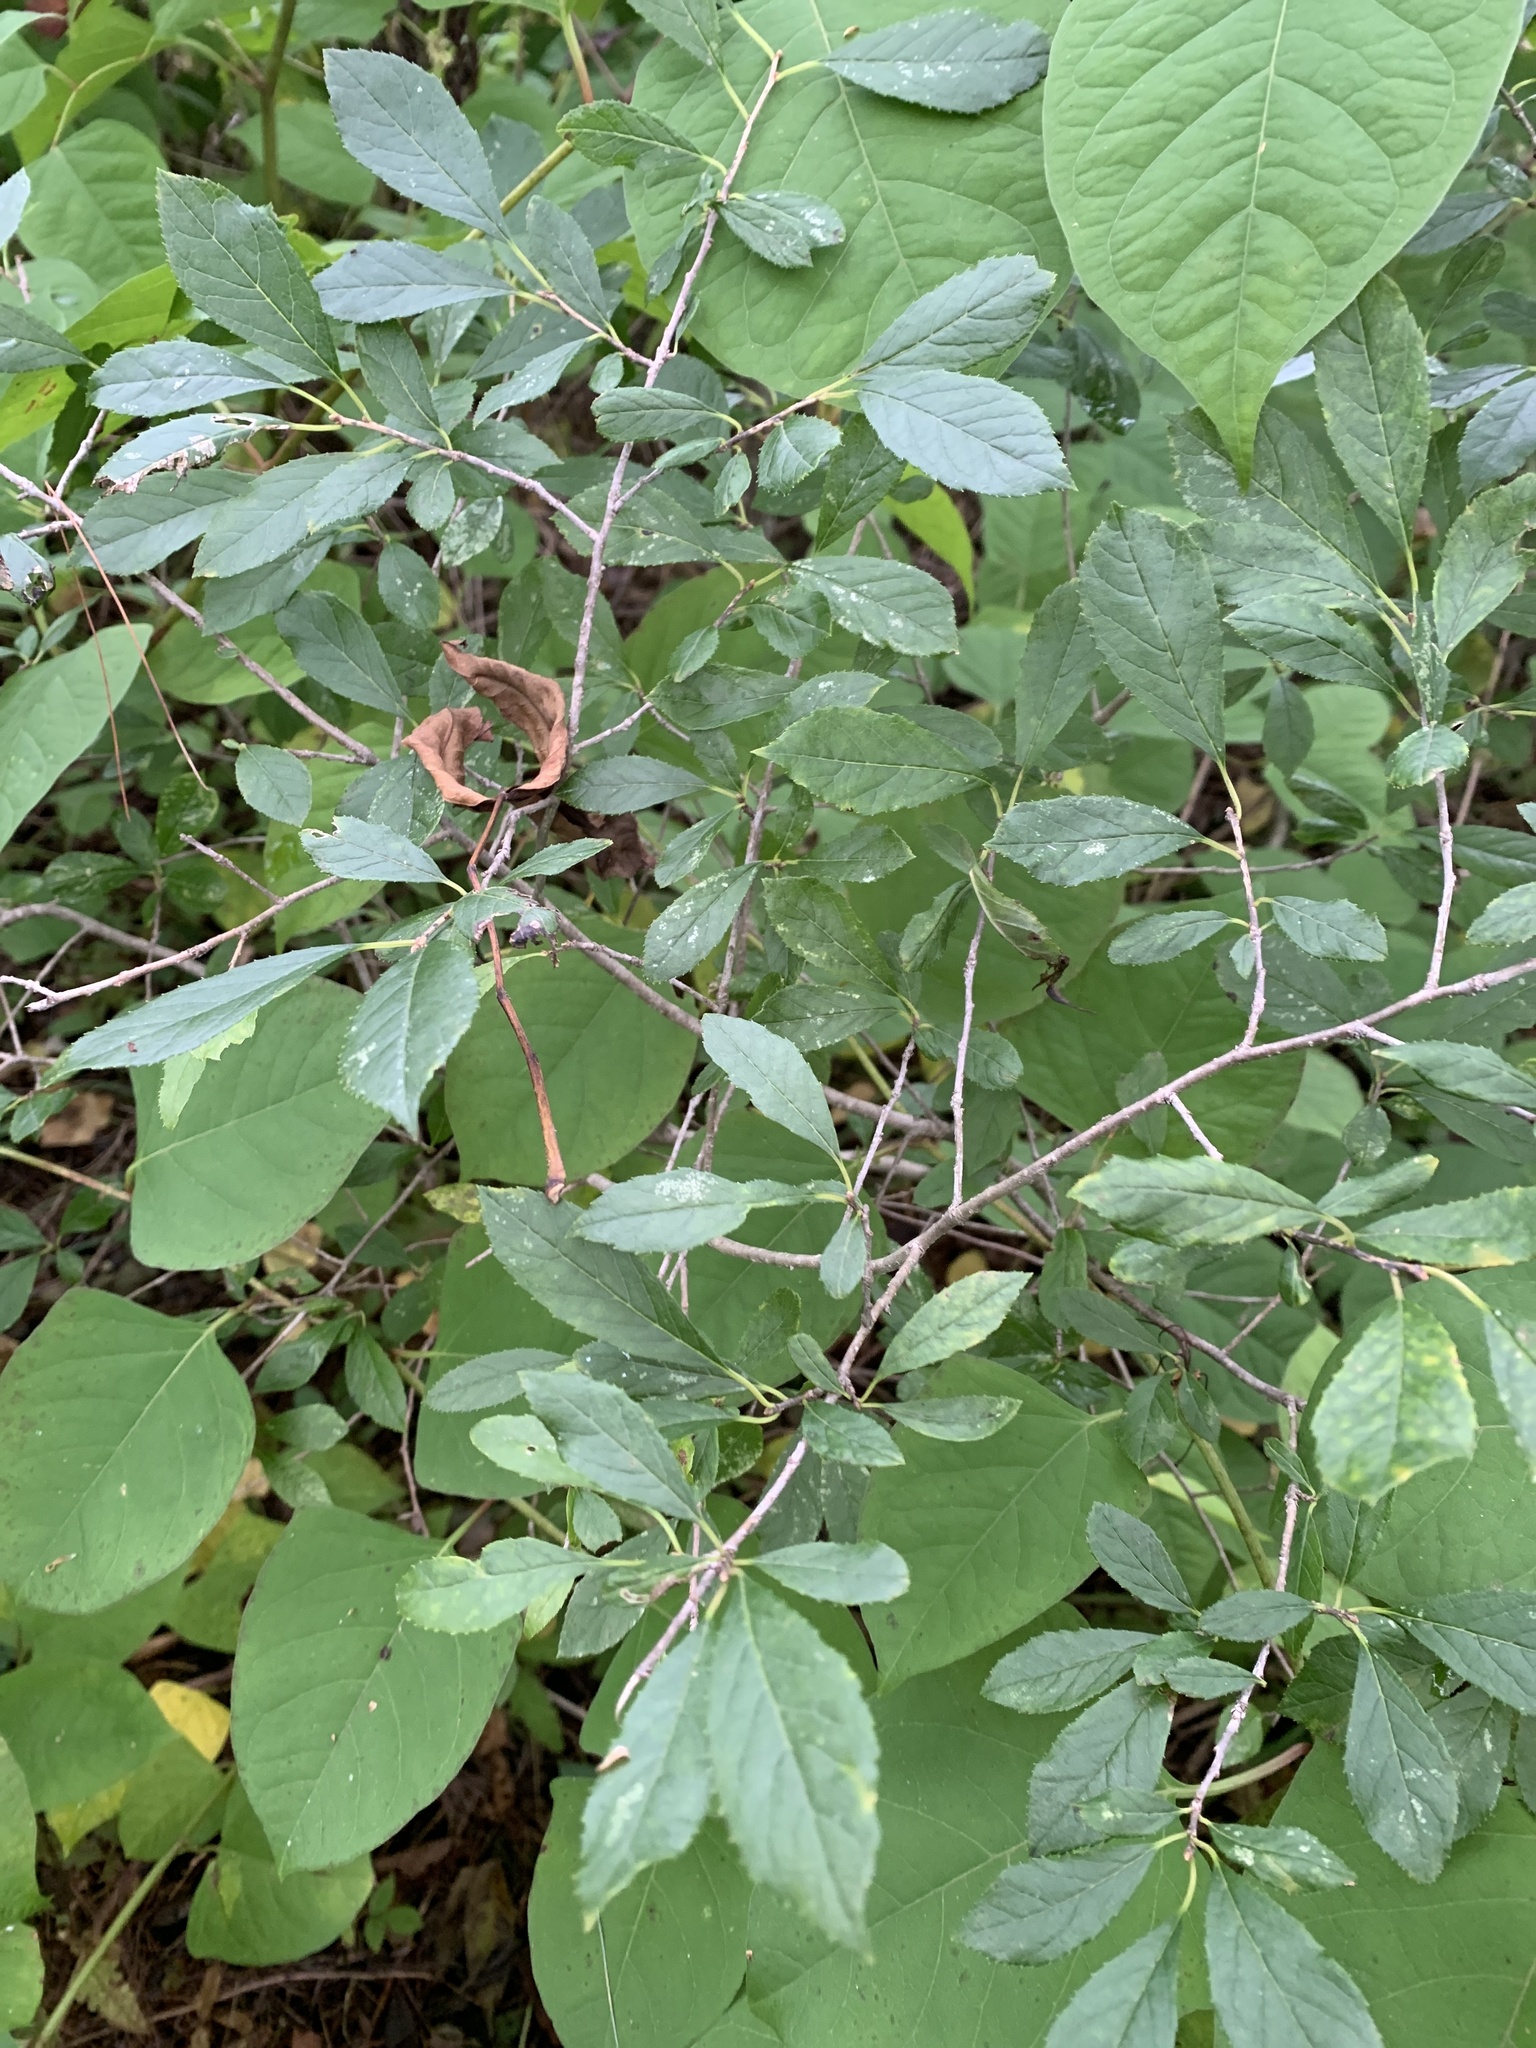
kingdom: Plantae
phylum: Tracheophyta
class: Magnoliopsida
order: Aquifoliales
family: Aquifoliaceae
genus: Ilex
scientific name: Ilex verticillata
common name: Virginia winterberry
